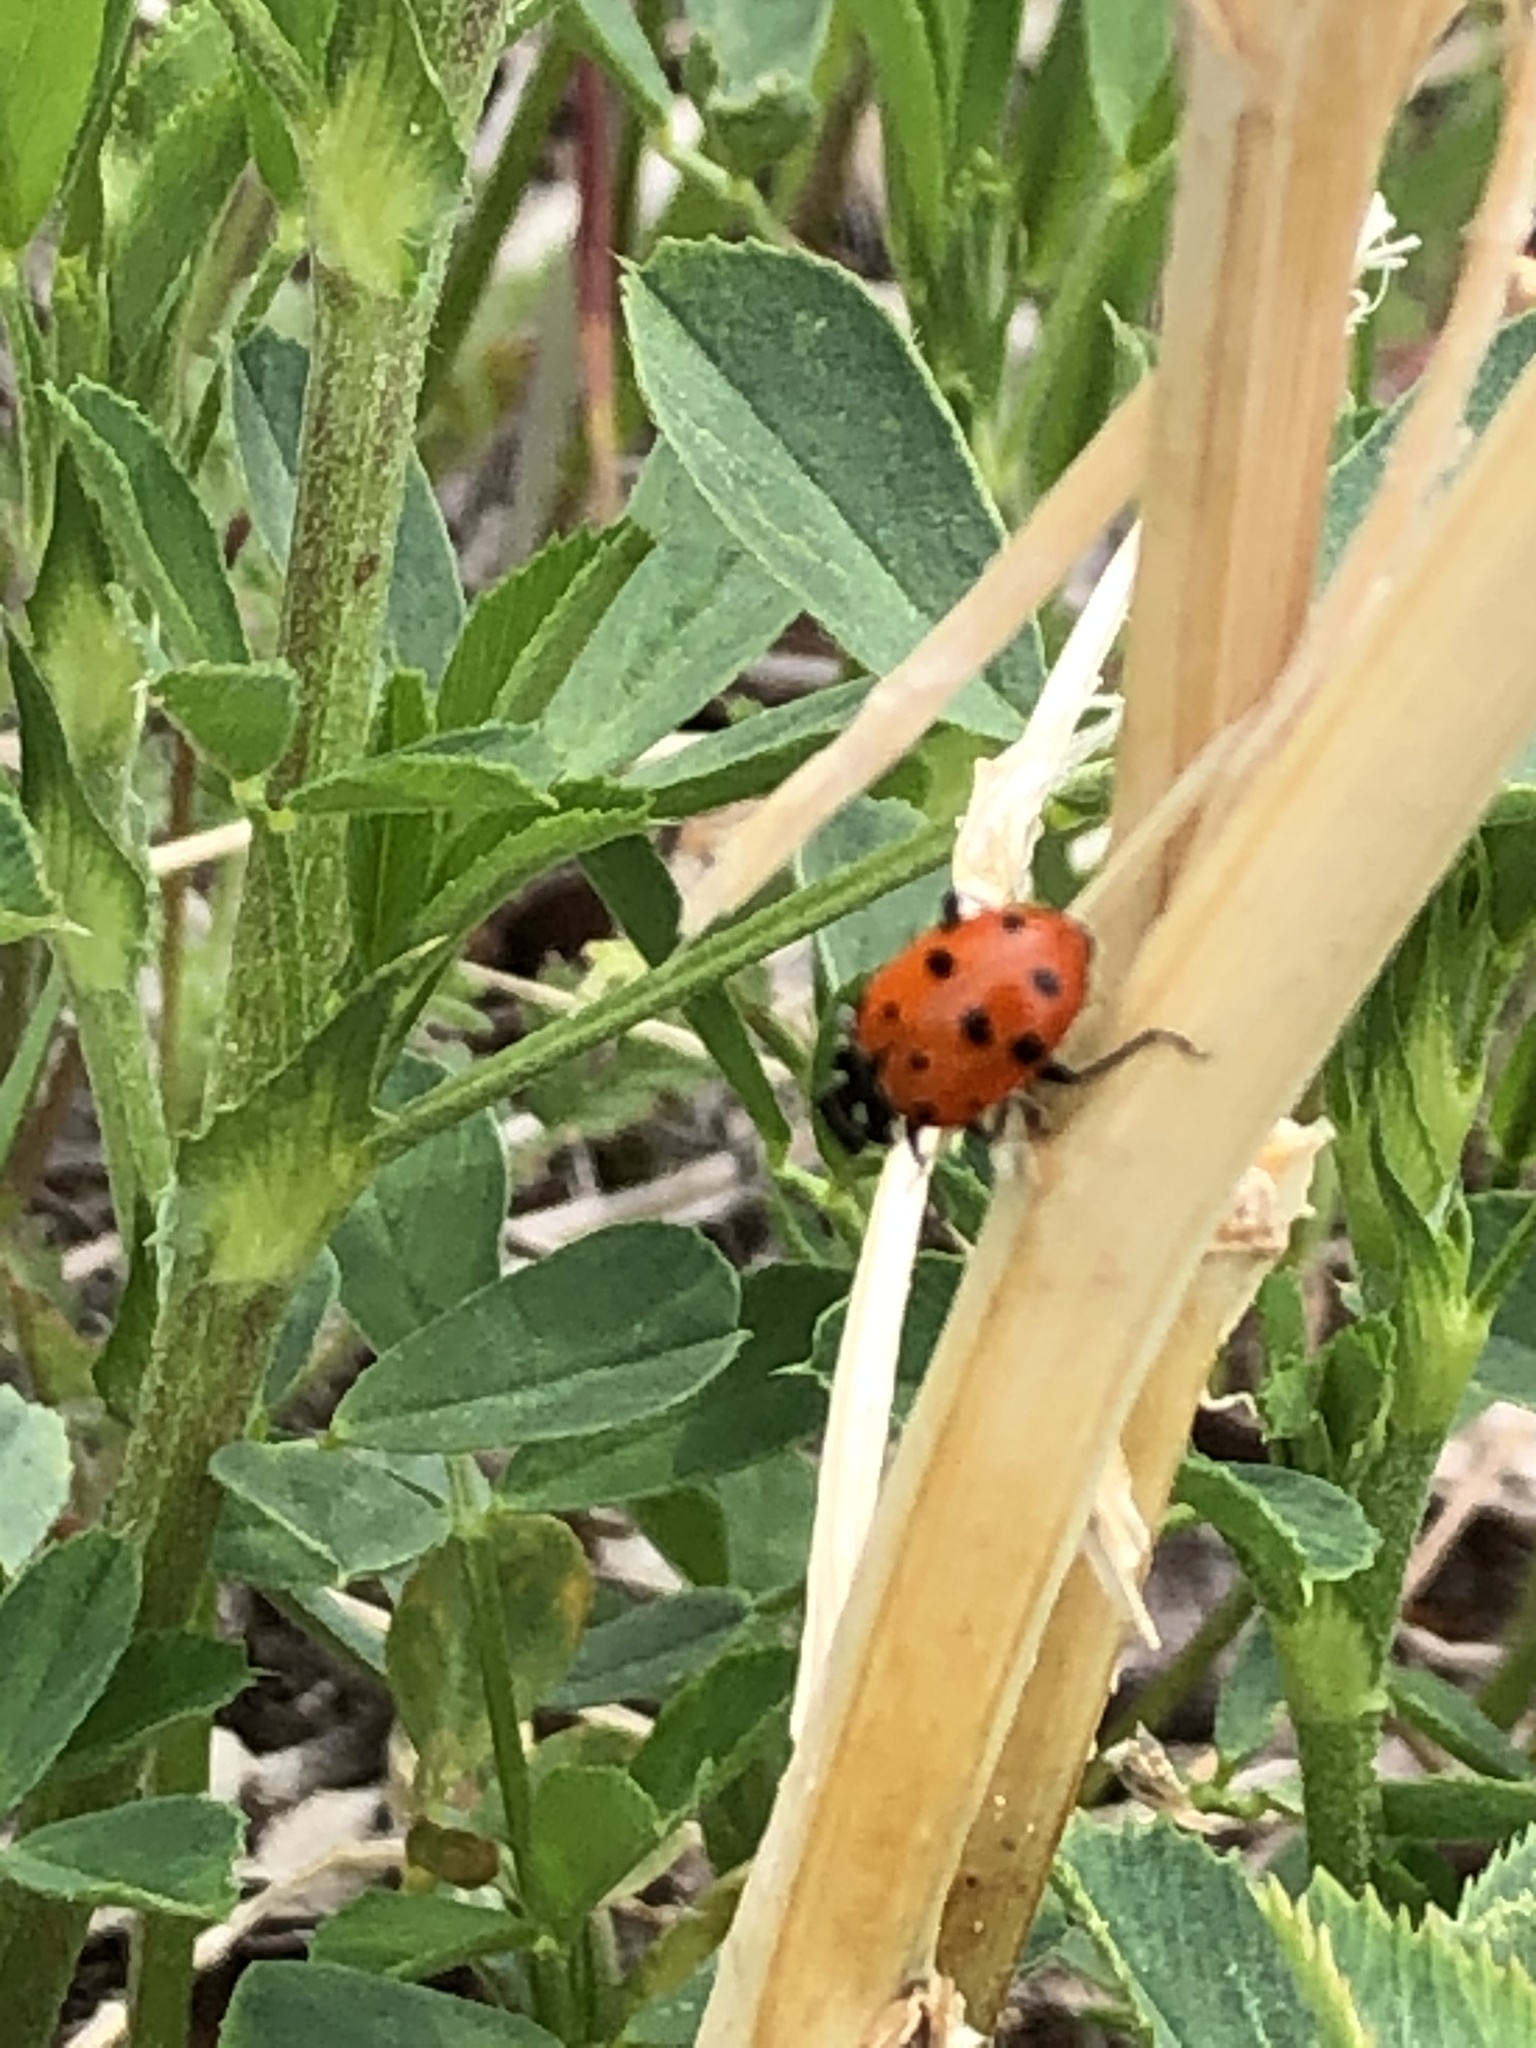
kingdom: Animalia
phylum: Arthropoda
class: Insecta
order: Coleoptera
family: Coccinellidae
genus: Hippodamia
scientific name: Hippodamia convergens
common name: Convergent lady beetle
